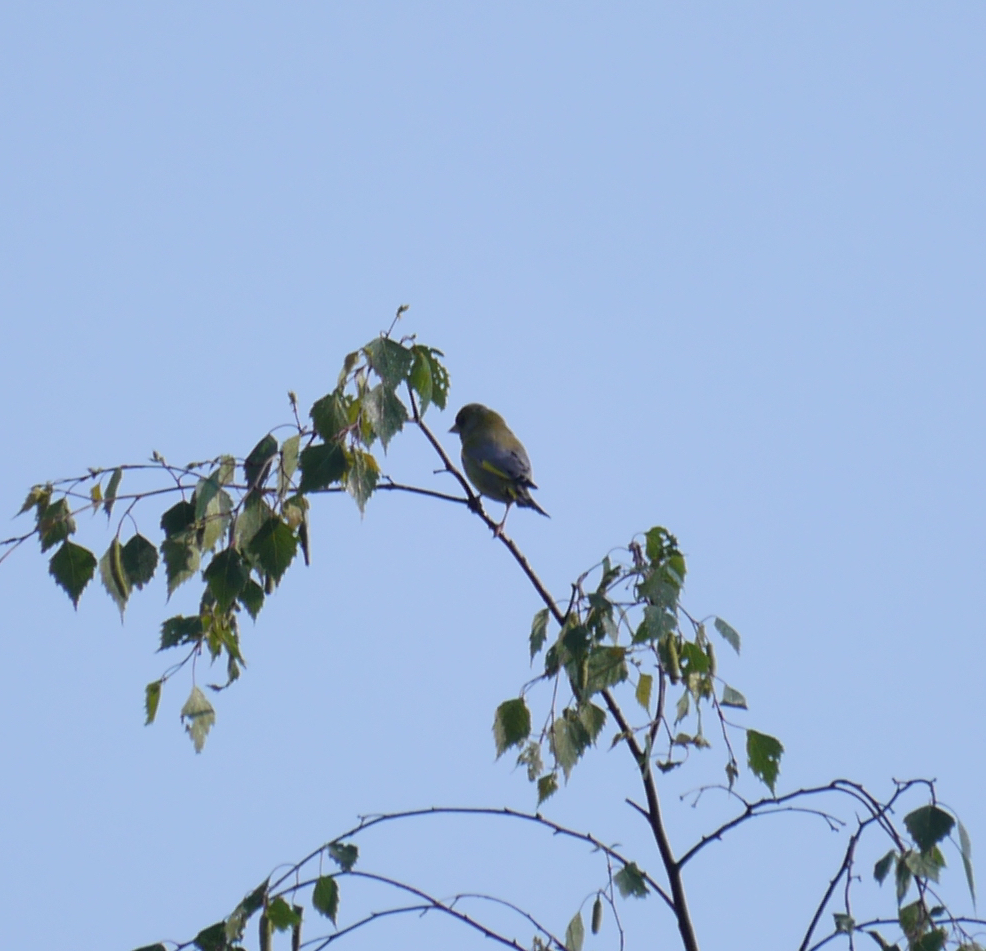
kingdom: Plantae
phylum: Tracheophyta
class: Liliopsida
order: Poales
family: Poaceae
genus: Chloris
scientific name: Chloris chloris
